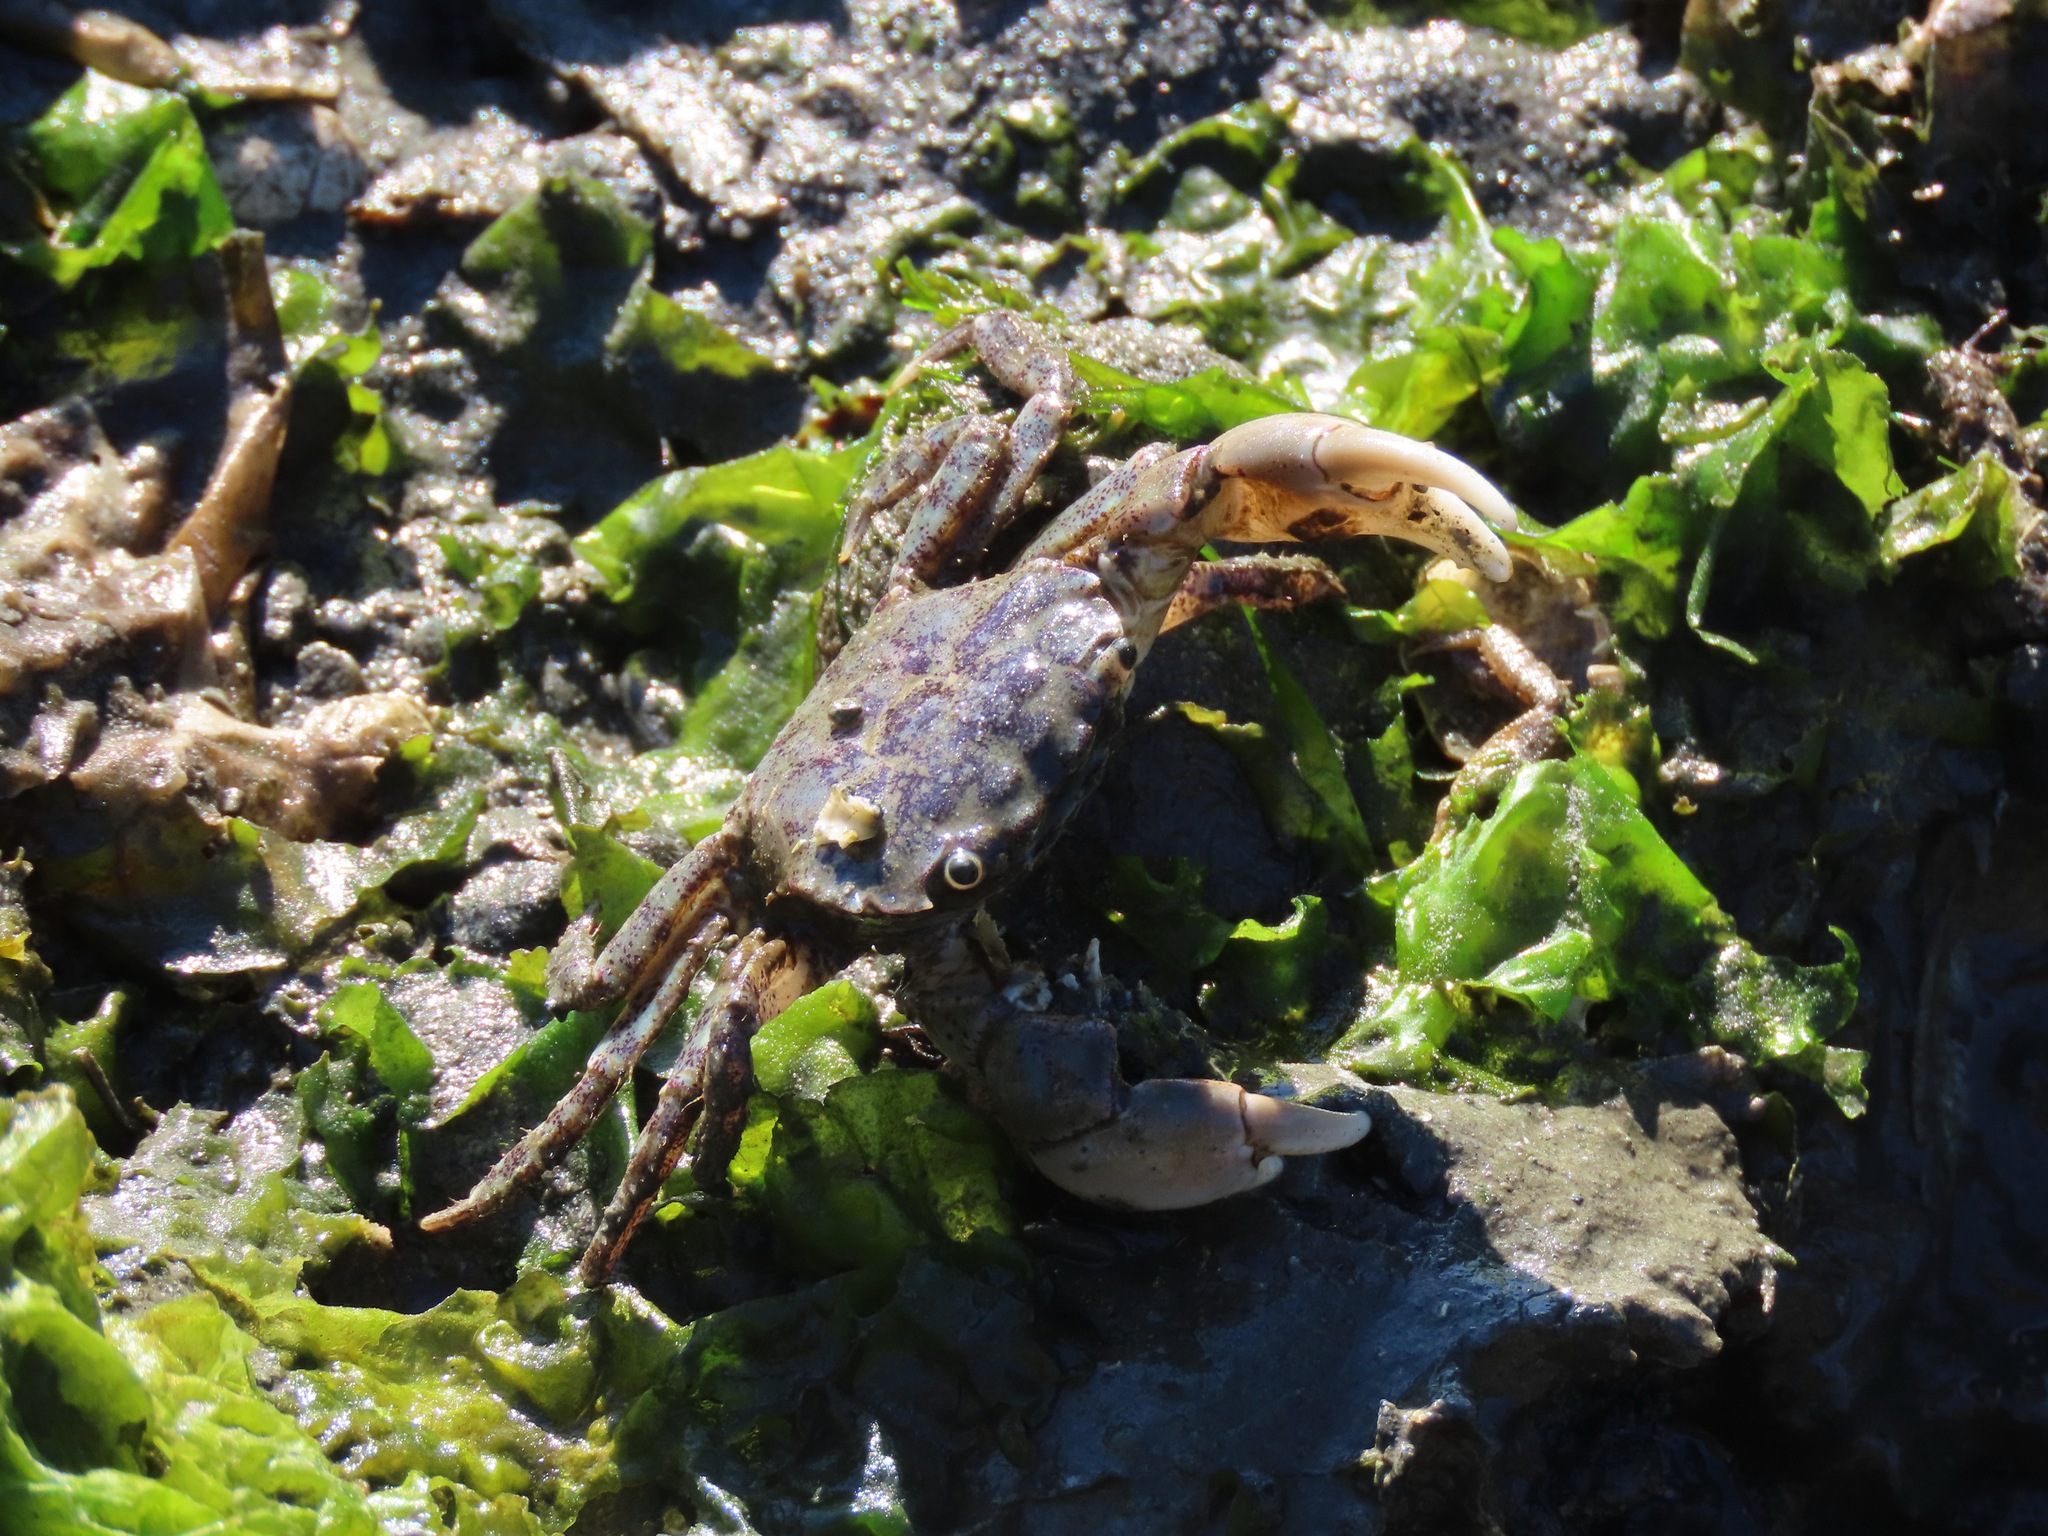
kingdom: Animalia
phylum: Arthropoda
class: Malacostraca
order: Decapoda
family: Varunidae
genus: Hemigrapsus
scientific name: Hemigrapsus oregonensis
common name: Yellow shore crab
